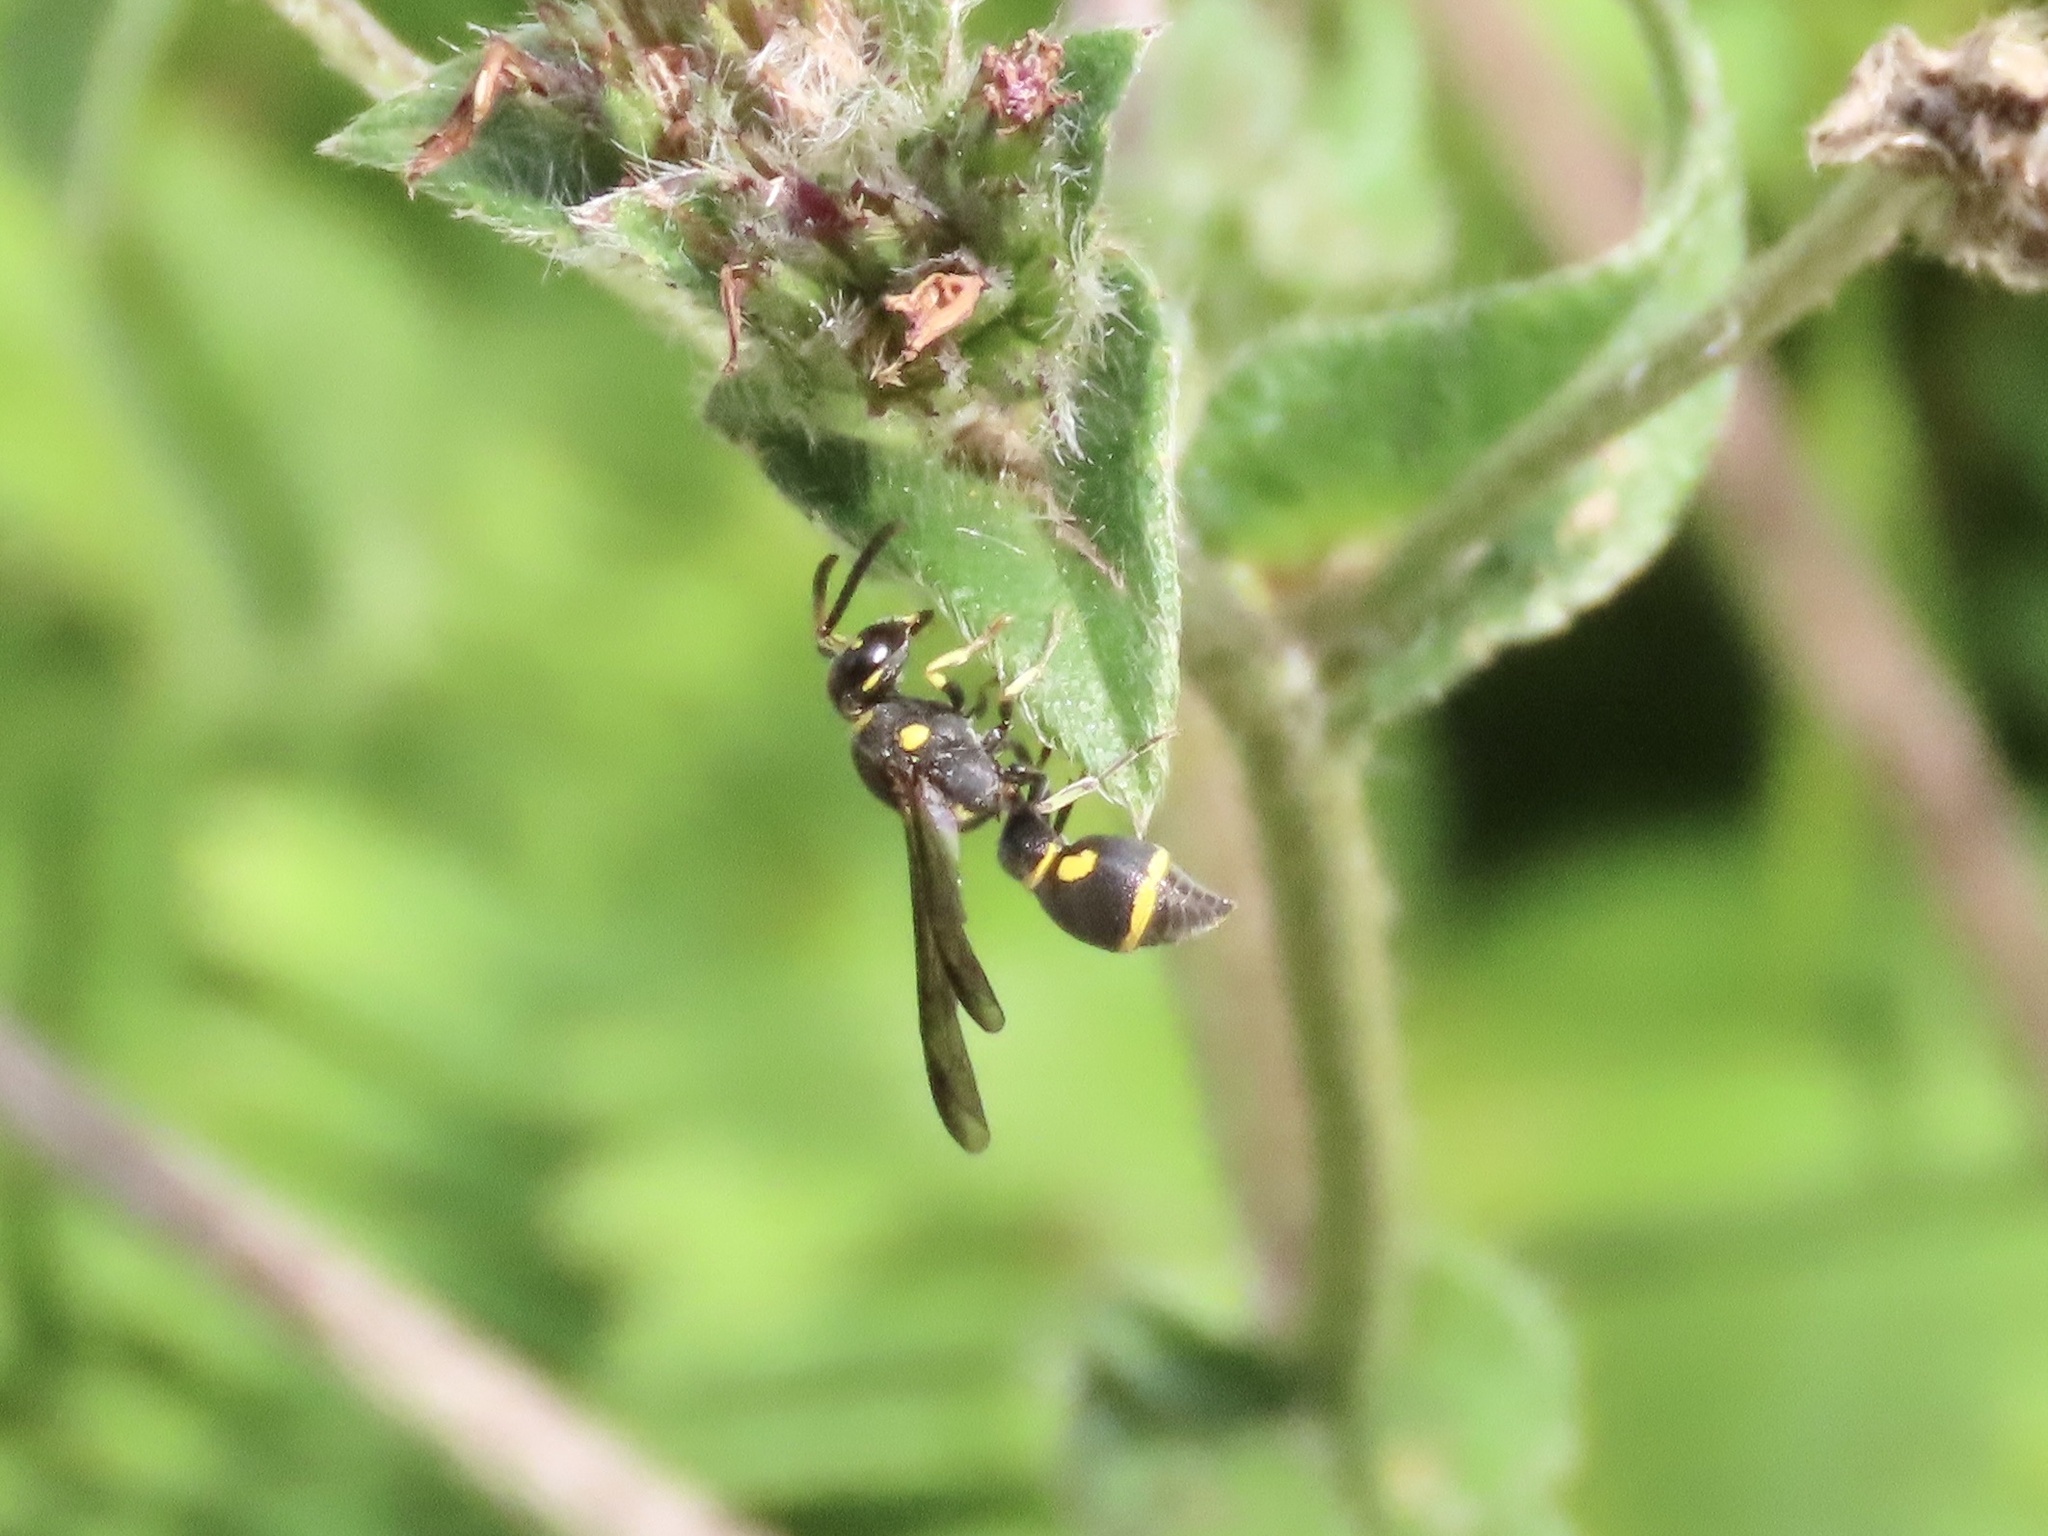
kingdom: Animalia
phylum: Arthropoda
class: Insecta
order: Hymenoptera
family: Eumenidae
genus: Apodynerus
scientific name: Apodynerus formosensis
